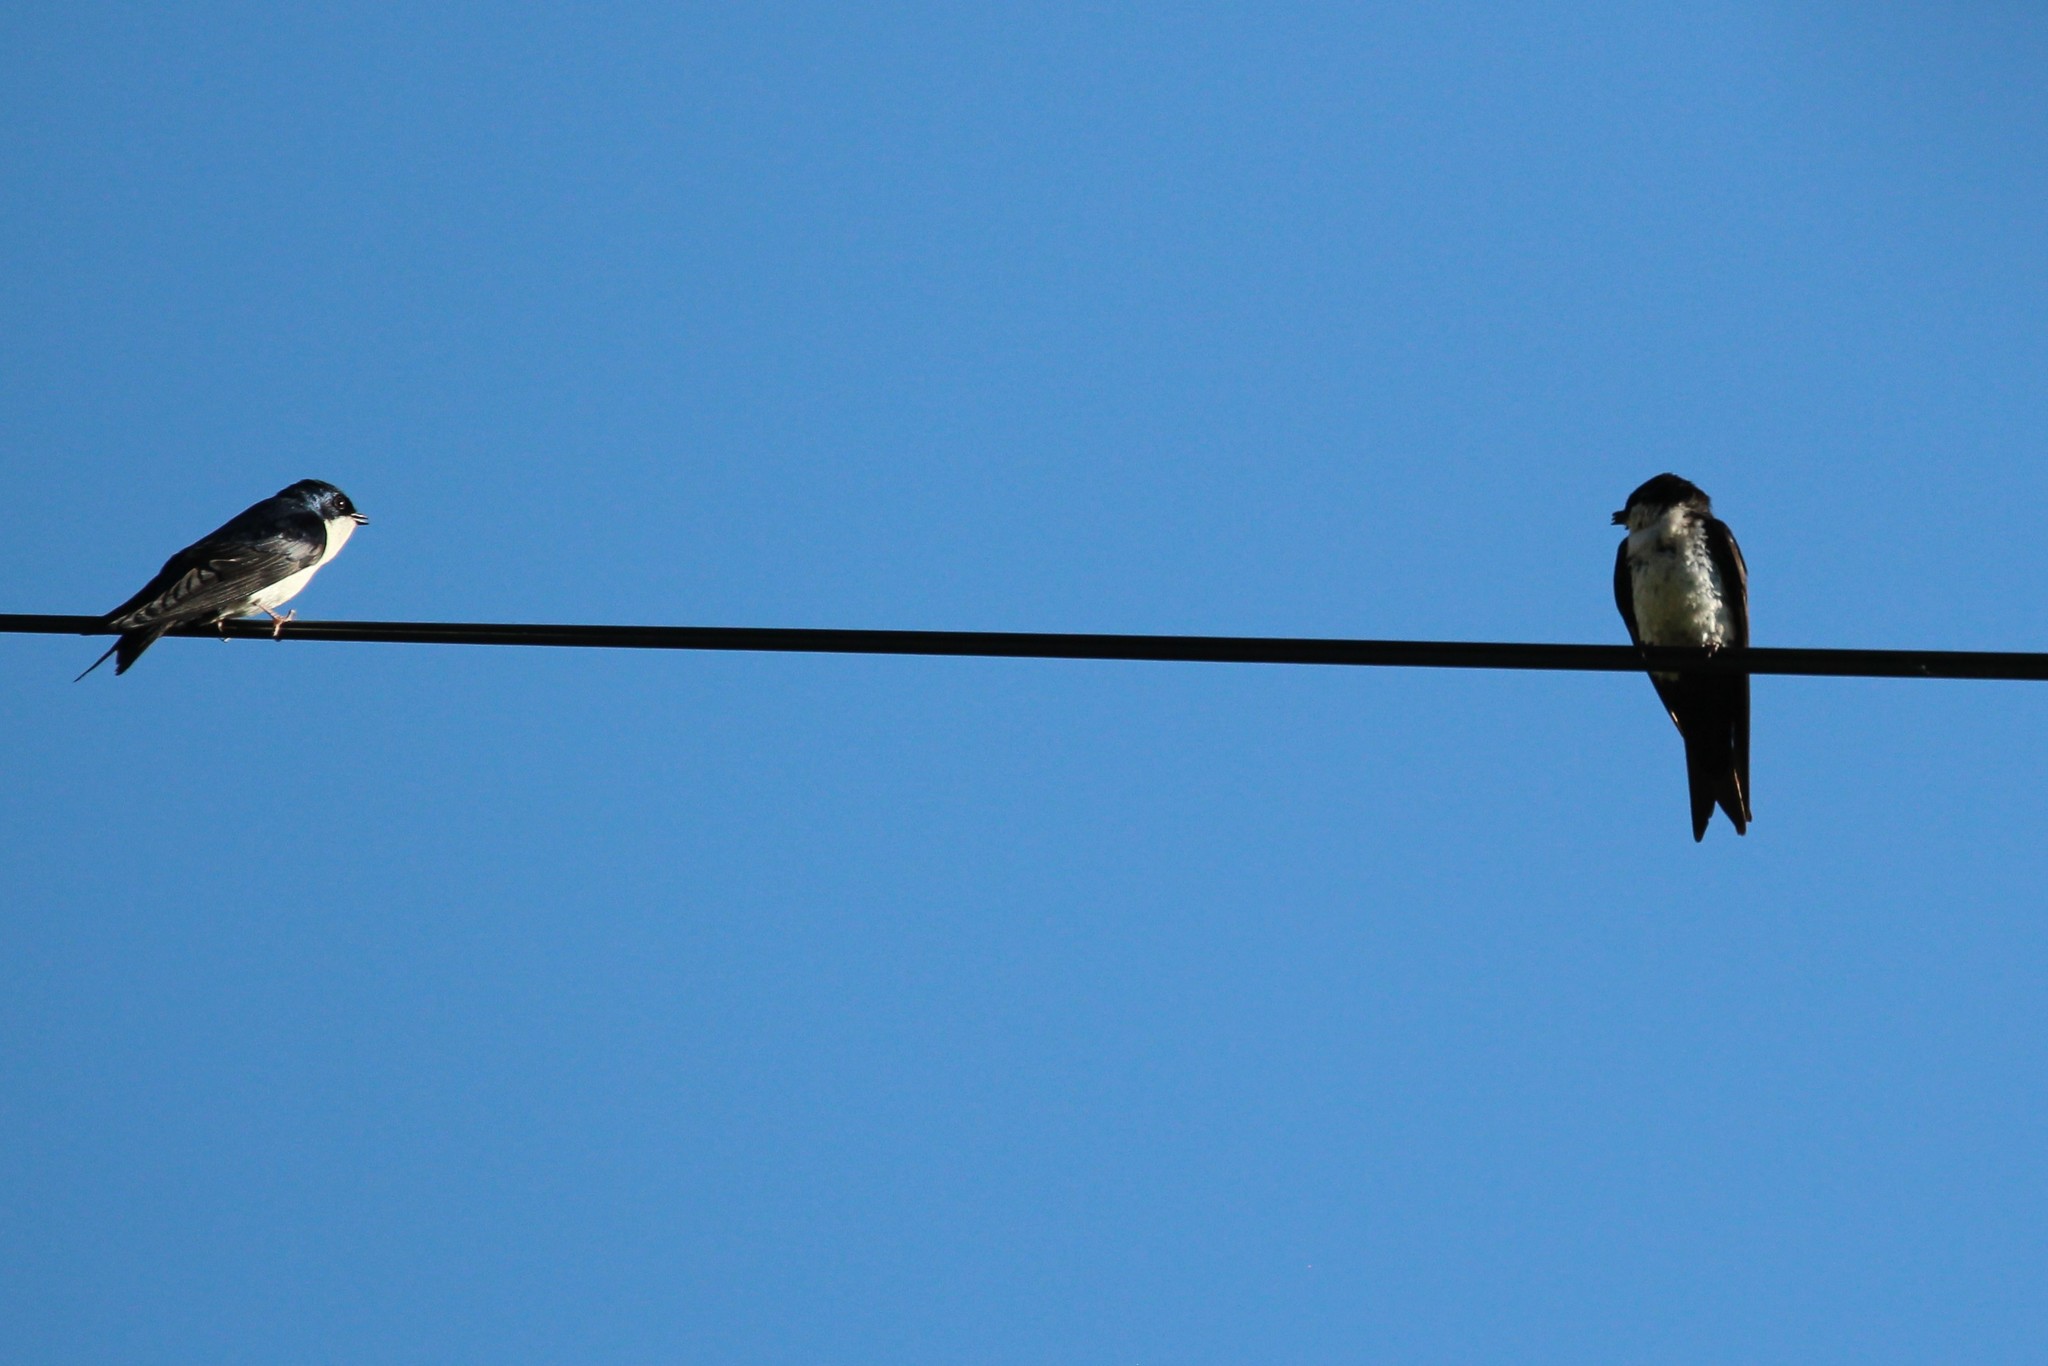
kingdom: Animalia
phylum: Chordata
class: Aves
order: Passeriformes
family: Hirundinidae
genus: Notiochelidon
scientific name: Notiochelidon cyanoleuca
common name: Blue-and-white swallow
